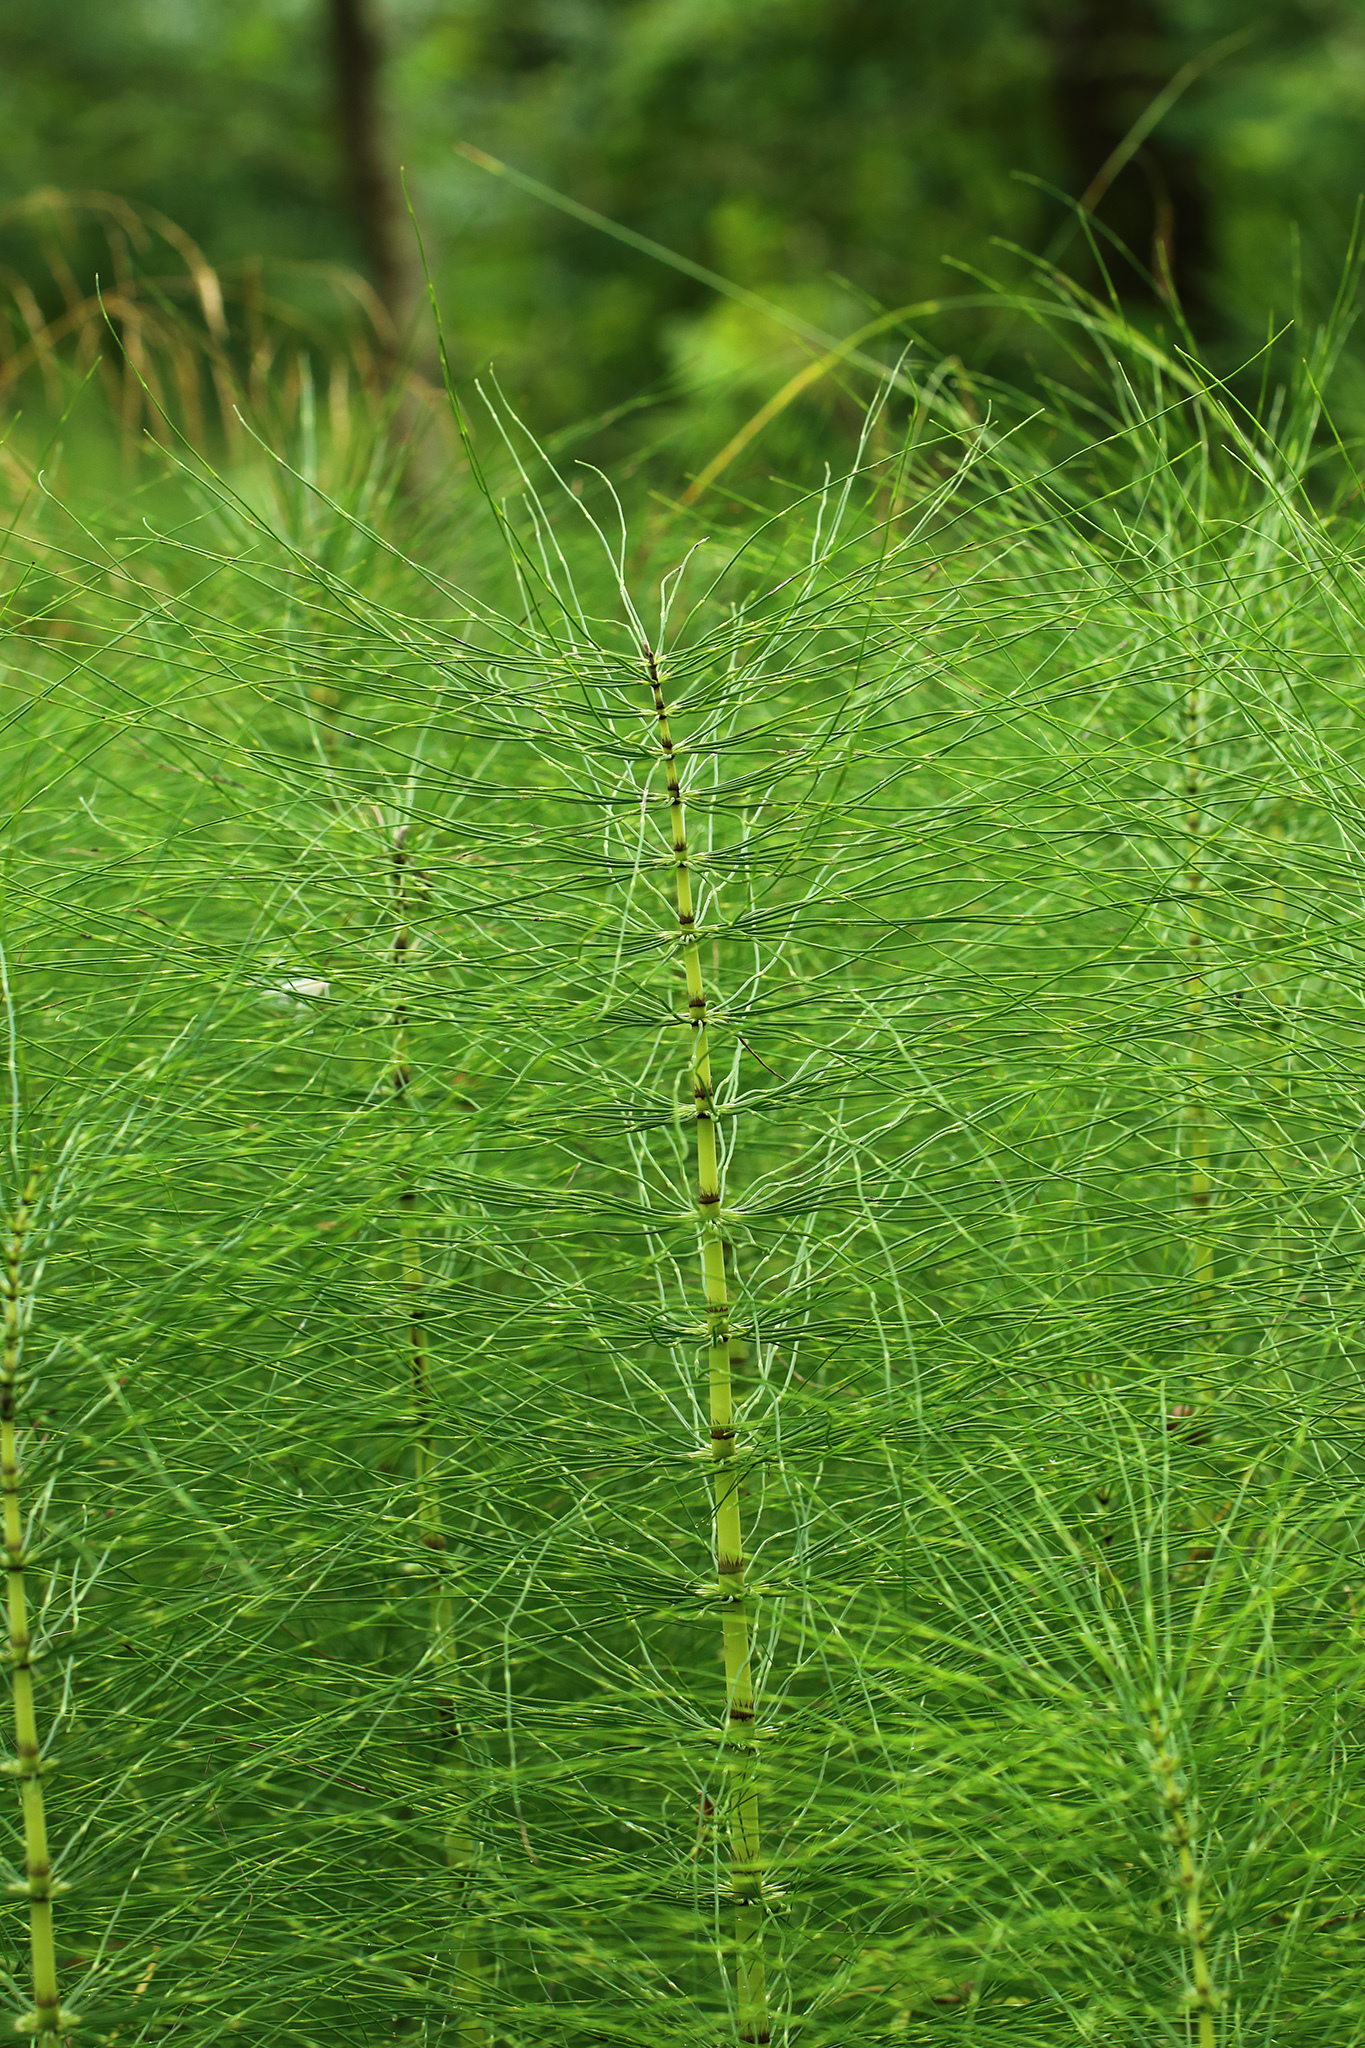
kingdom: Plantae
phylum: Tracheophyta
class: Polypodiopsida
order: Equisetales
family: Equisetaceae
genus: Equisetum
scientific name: Equisetum telmateia
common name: Great horsetail
